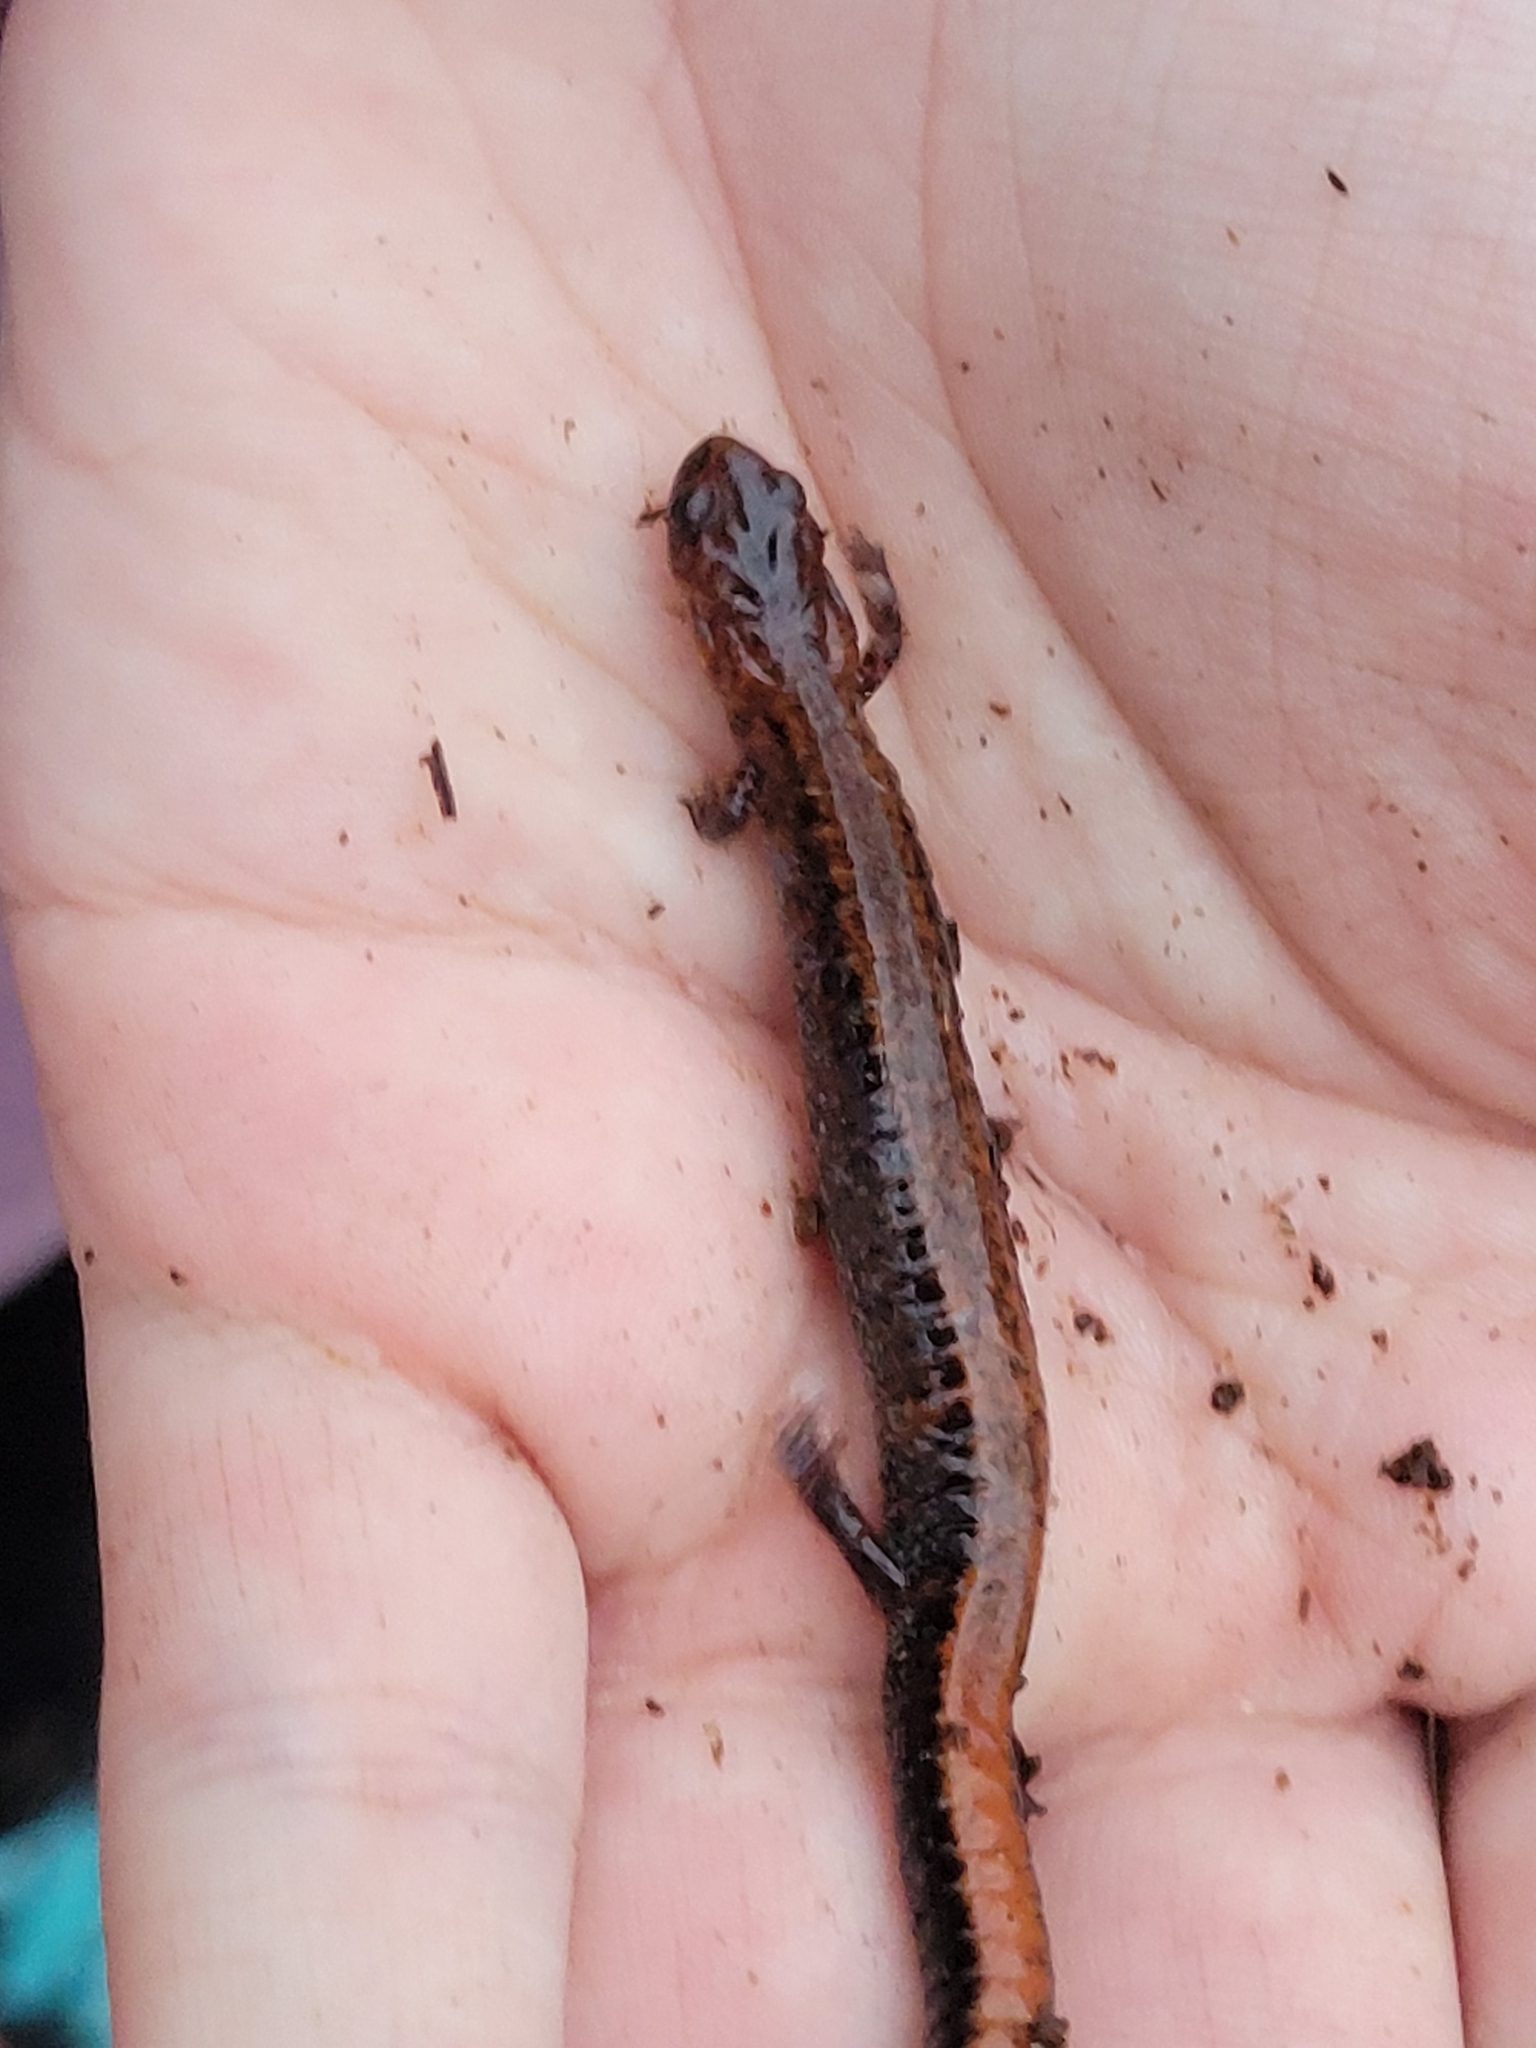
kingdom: Animalia
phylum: Chordata
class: Amphibia
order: Caudata
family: Plethodontidae
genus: Plethodon
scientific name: Plethodon cinereus
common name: Redback salamander
